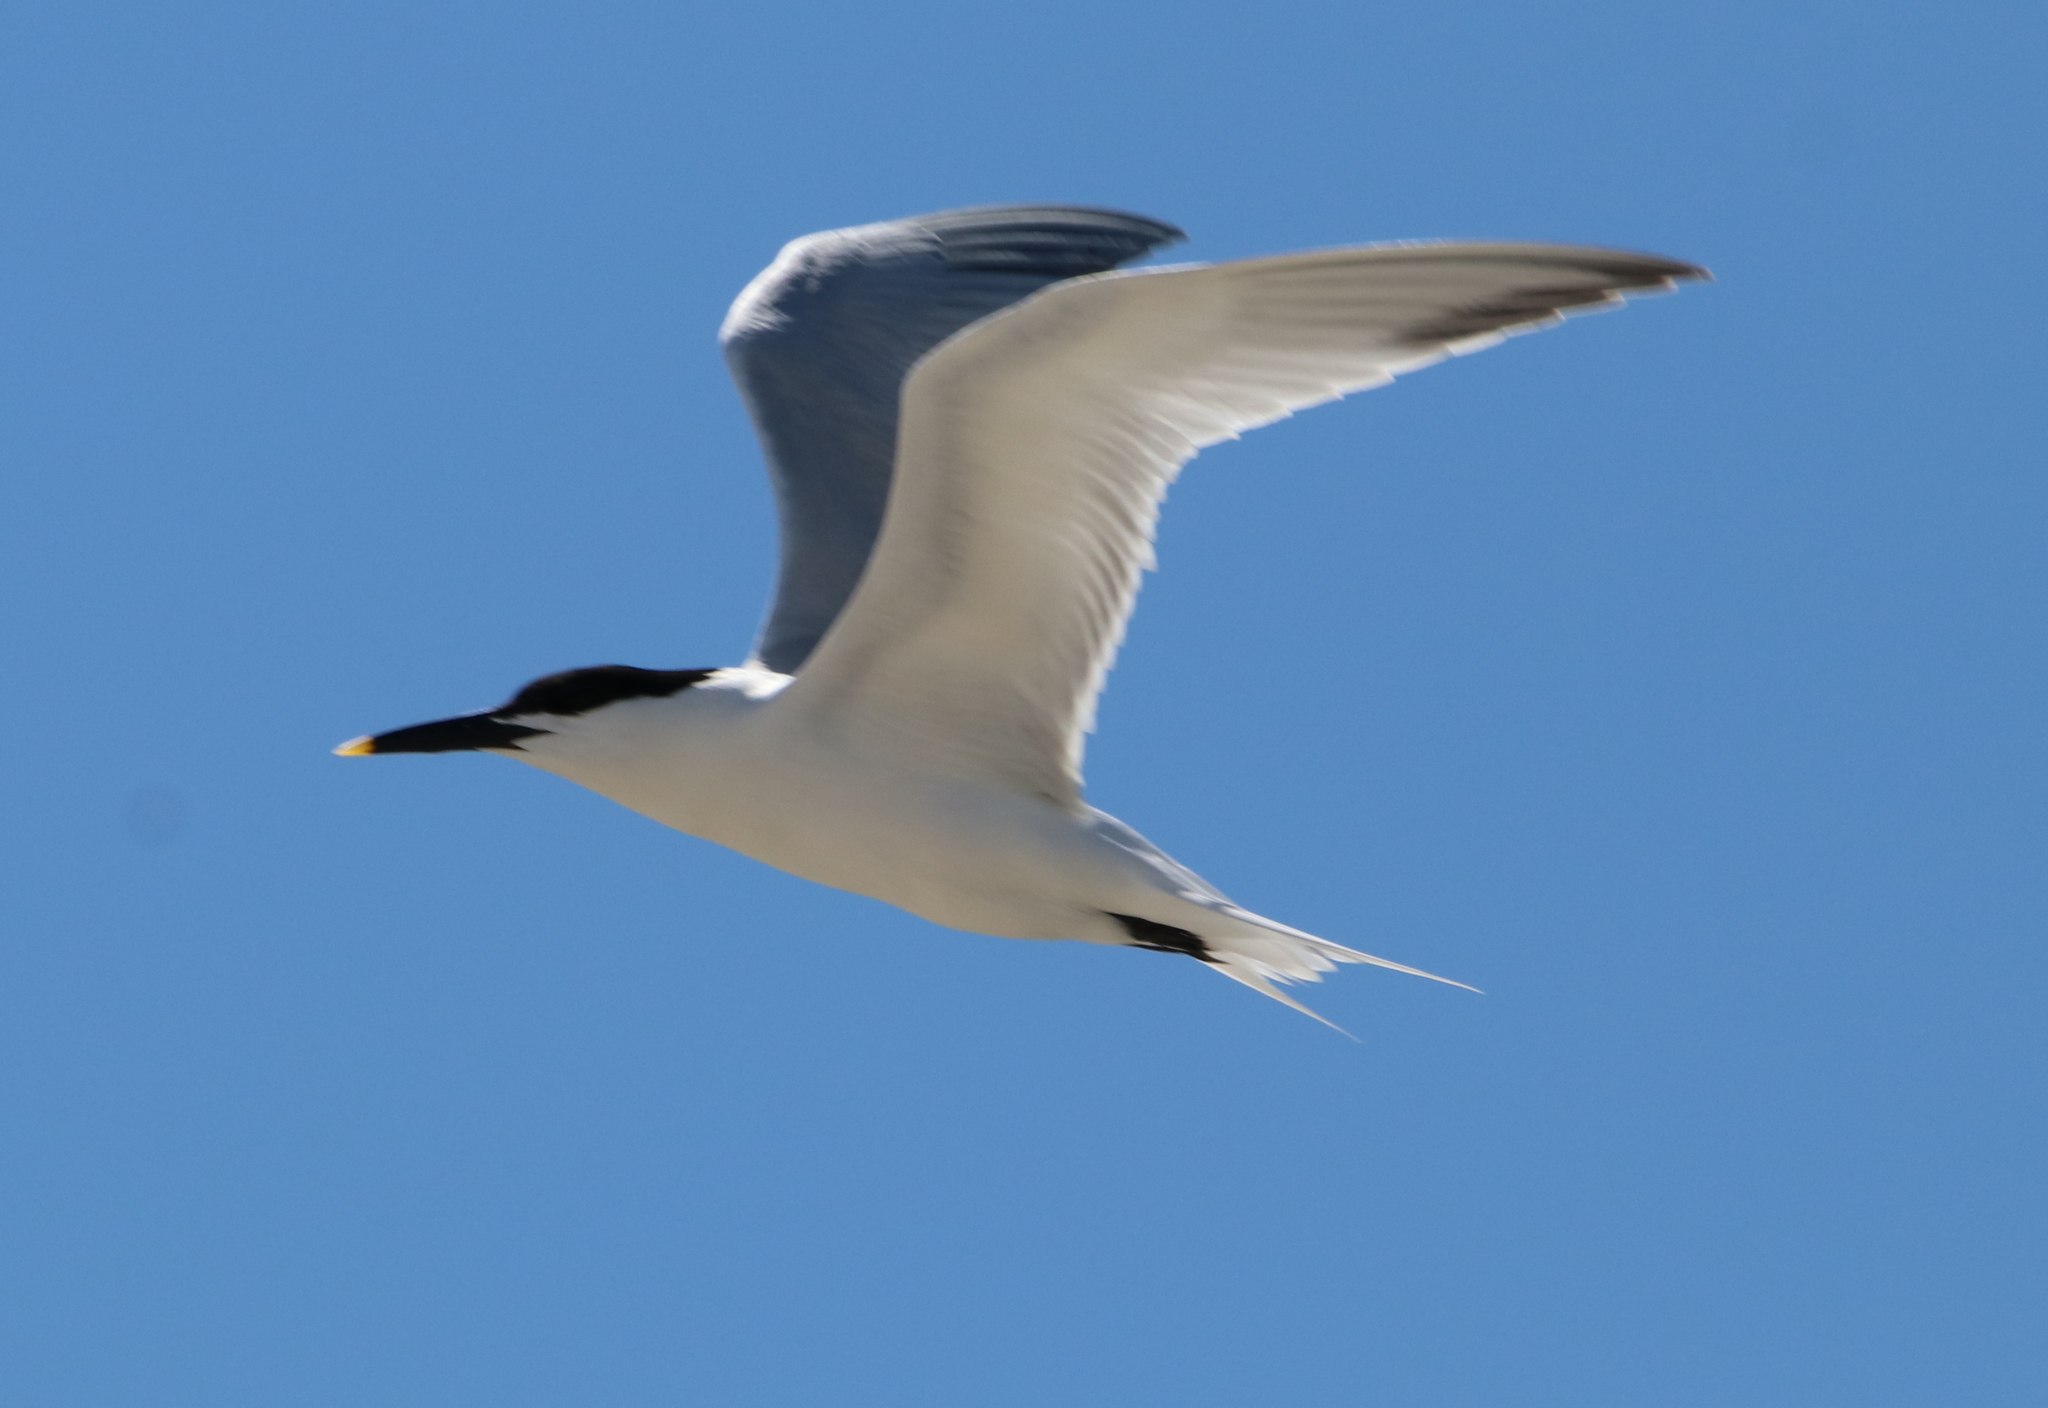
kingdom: Animalia
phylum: Chordata
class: Aves
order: Charadriiformes
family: Laridae
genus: Thalasseus
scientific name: Thalasseus sandvicensis
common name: Sandwich tern
